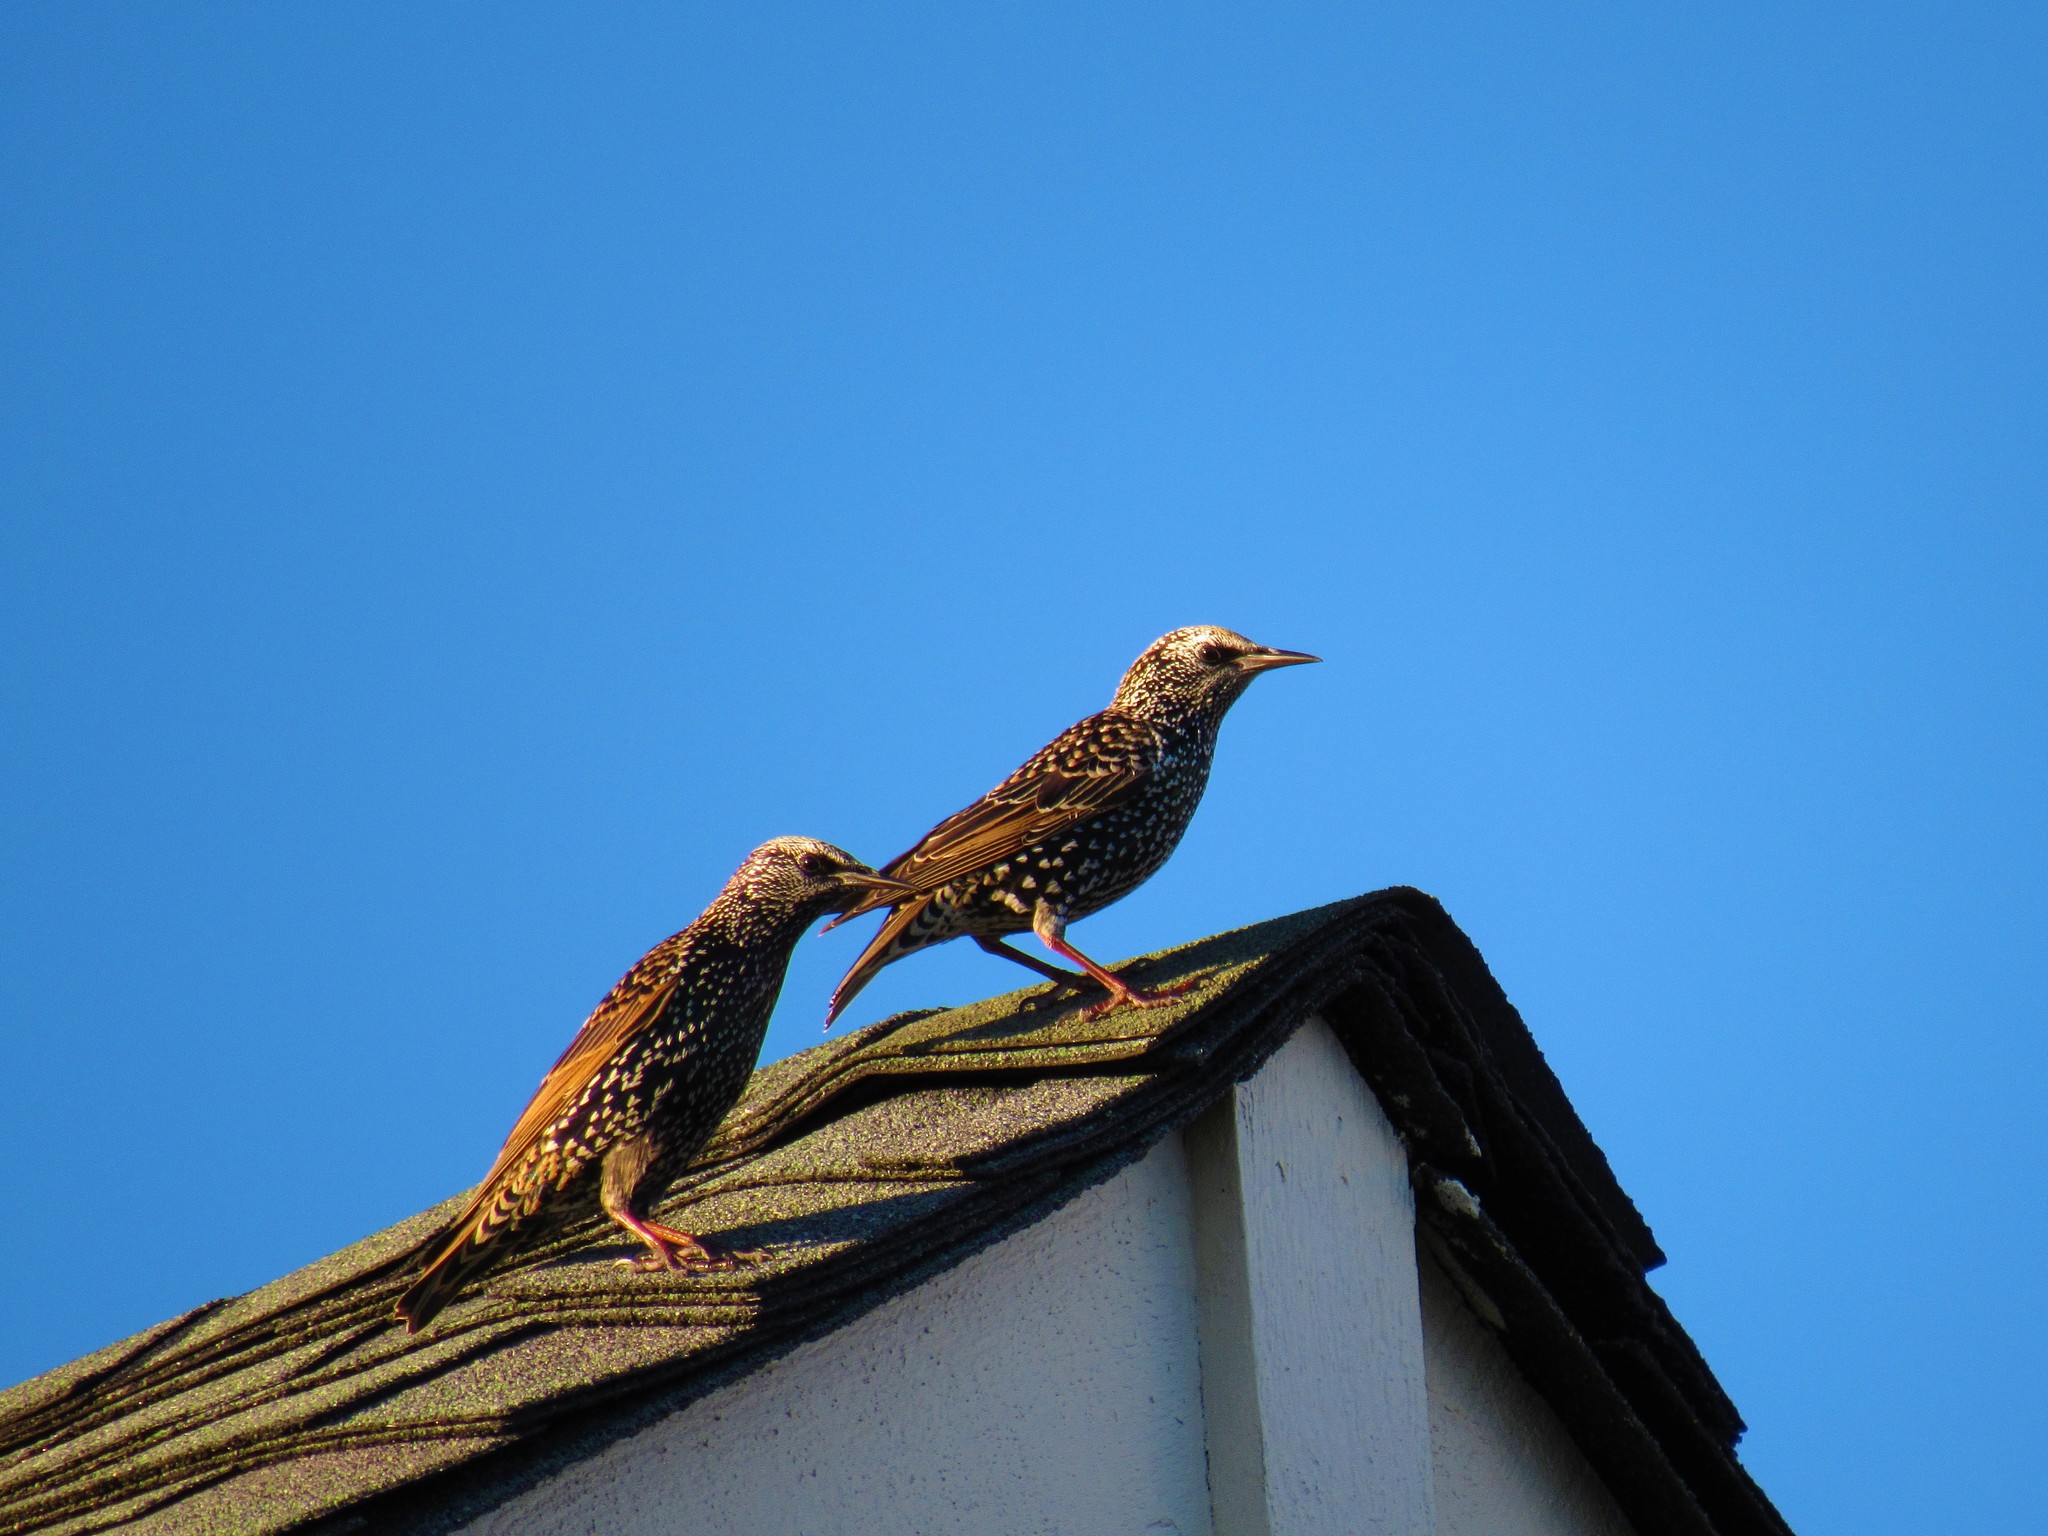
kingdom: Animalia
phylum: Chordata
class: Aves
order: Passeriformes
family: Sturnidae
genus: Sturnus
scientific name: Sturnus vulgaris
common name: Common starling
